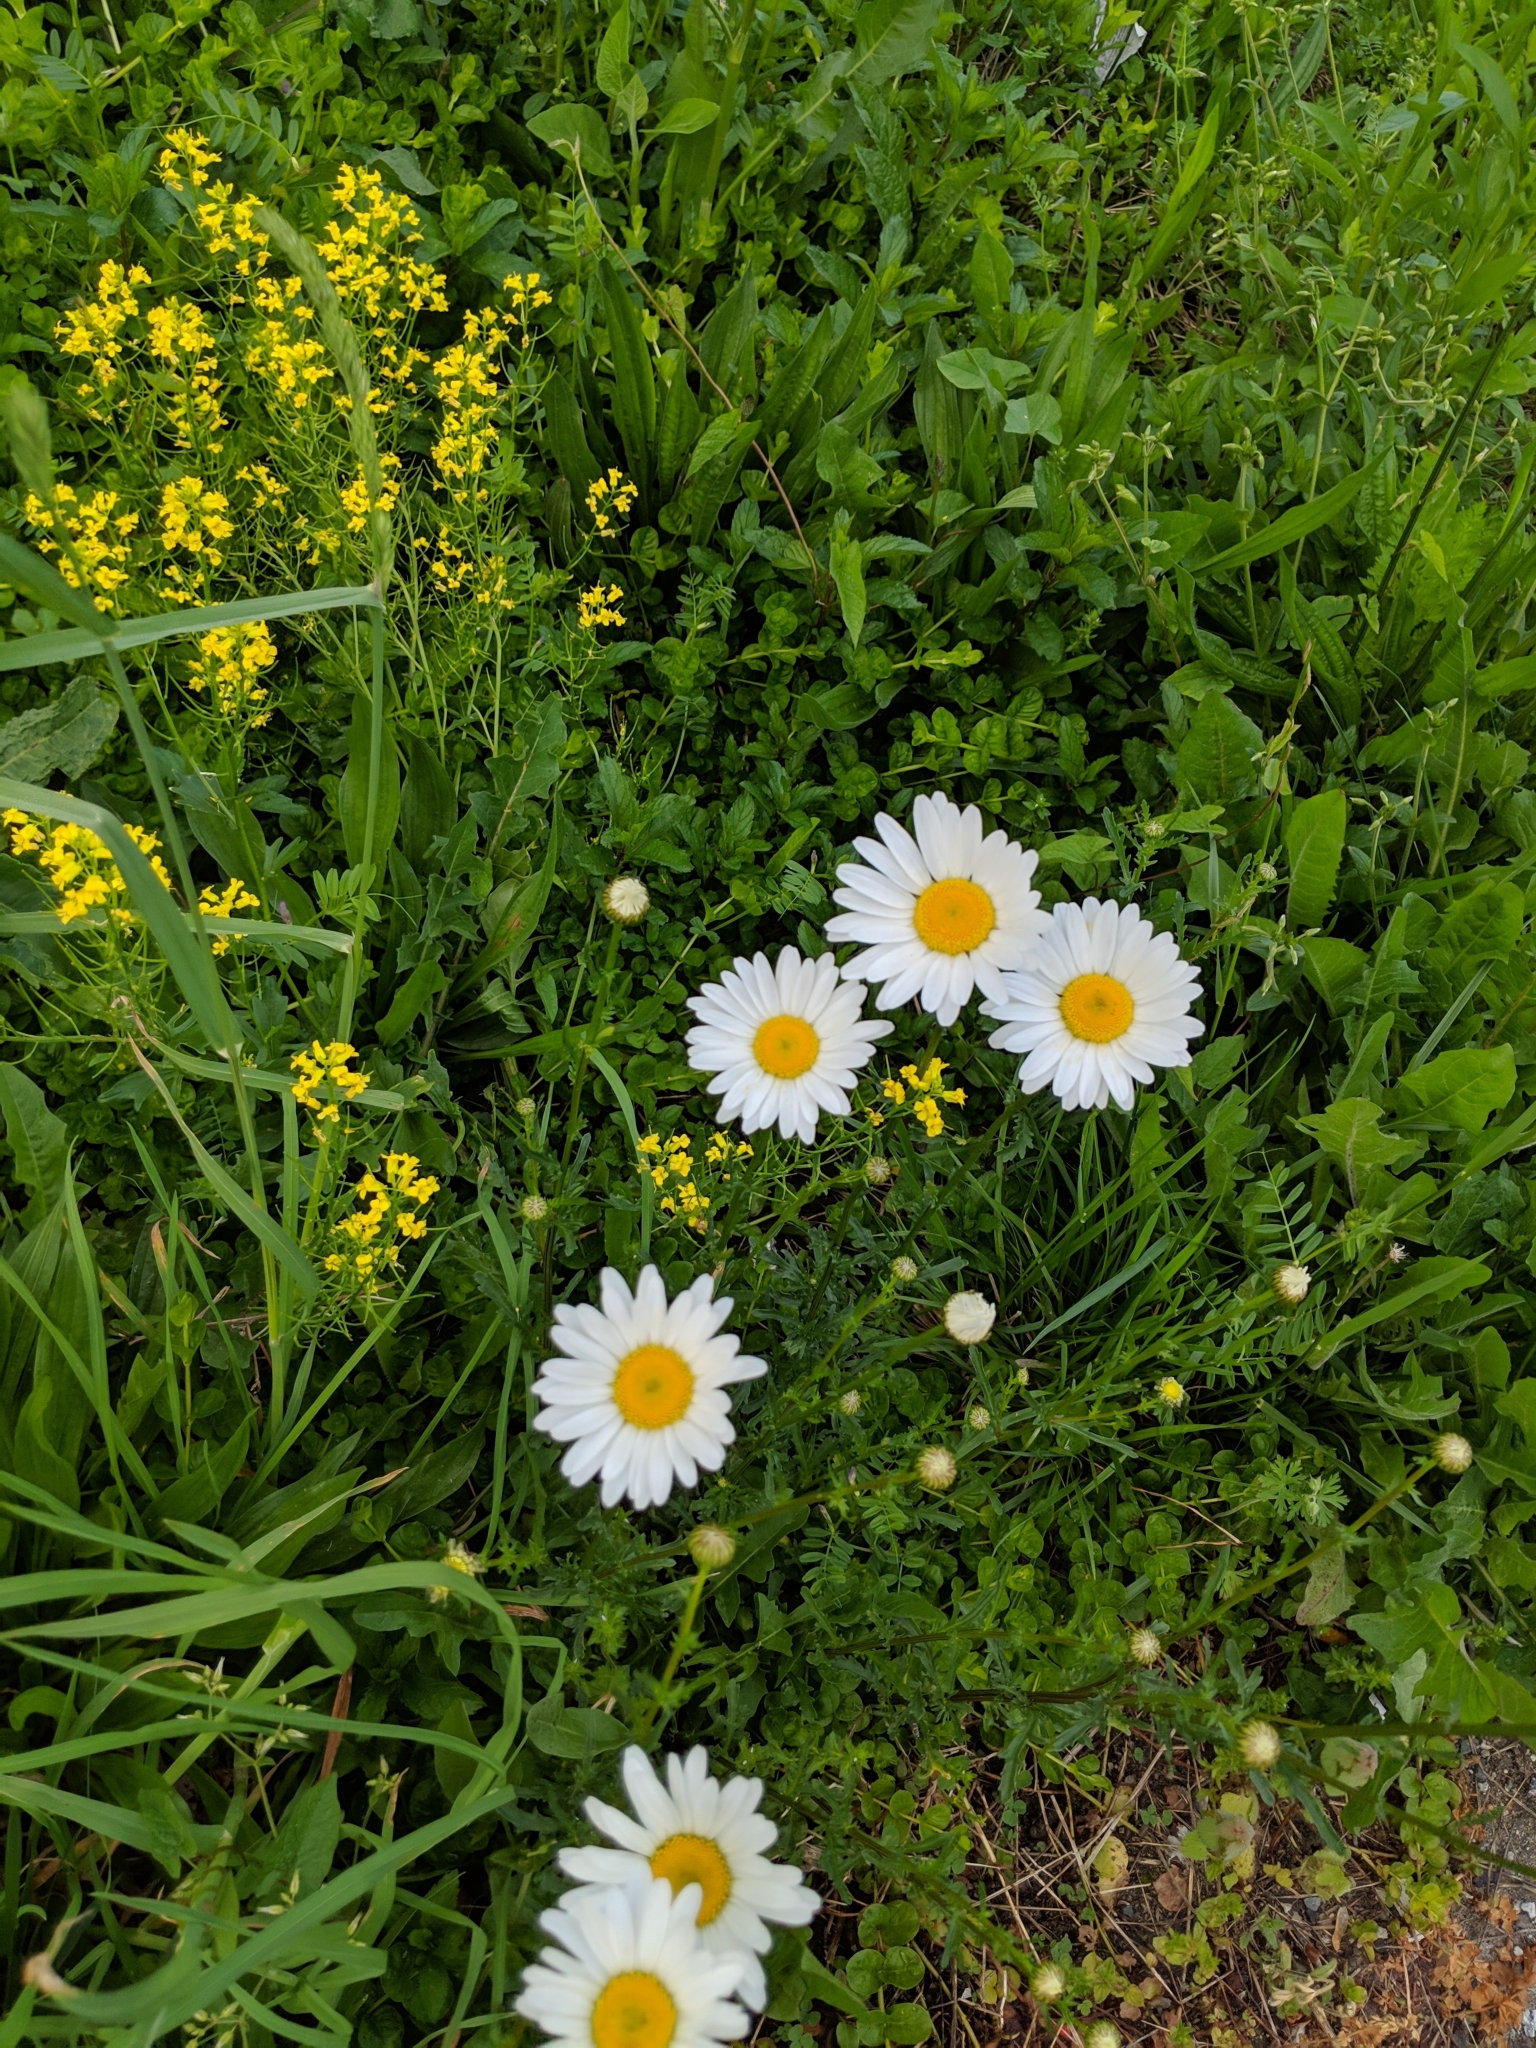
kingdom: Plantae
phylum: Tracheophyta
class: Magnoliopsida
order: Asterales
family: Asteraceae
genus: Leucanthemum
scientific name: Leucanthemum vulgare
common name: Oxeye daisy
